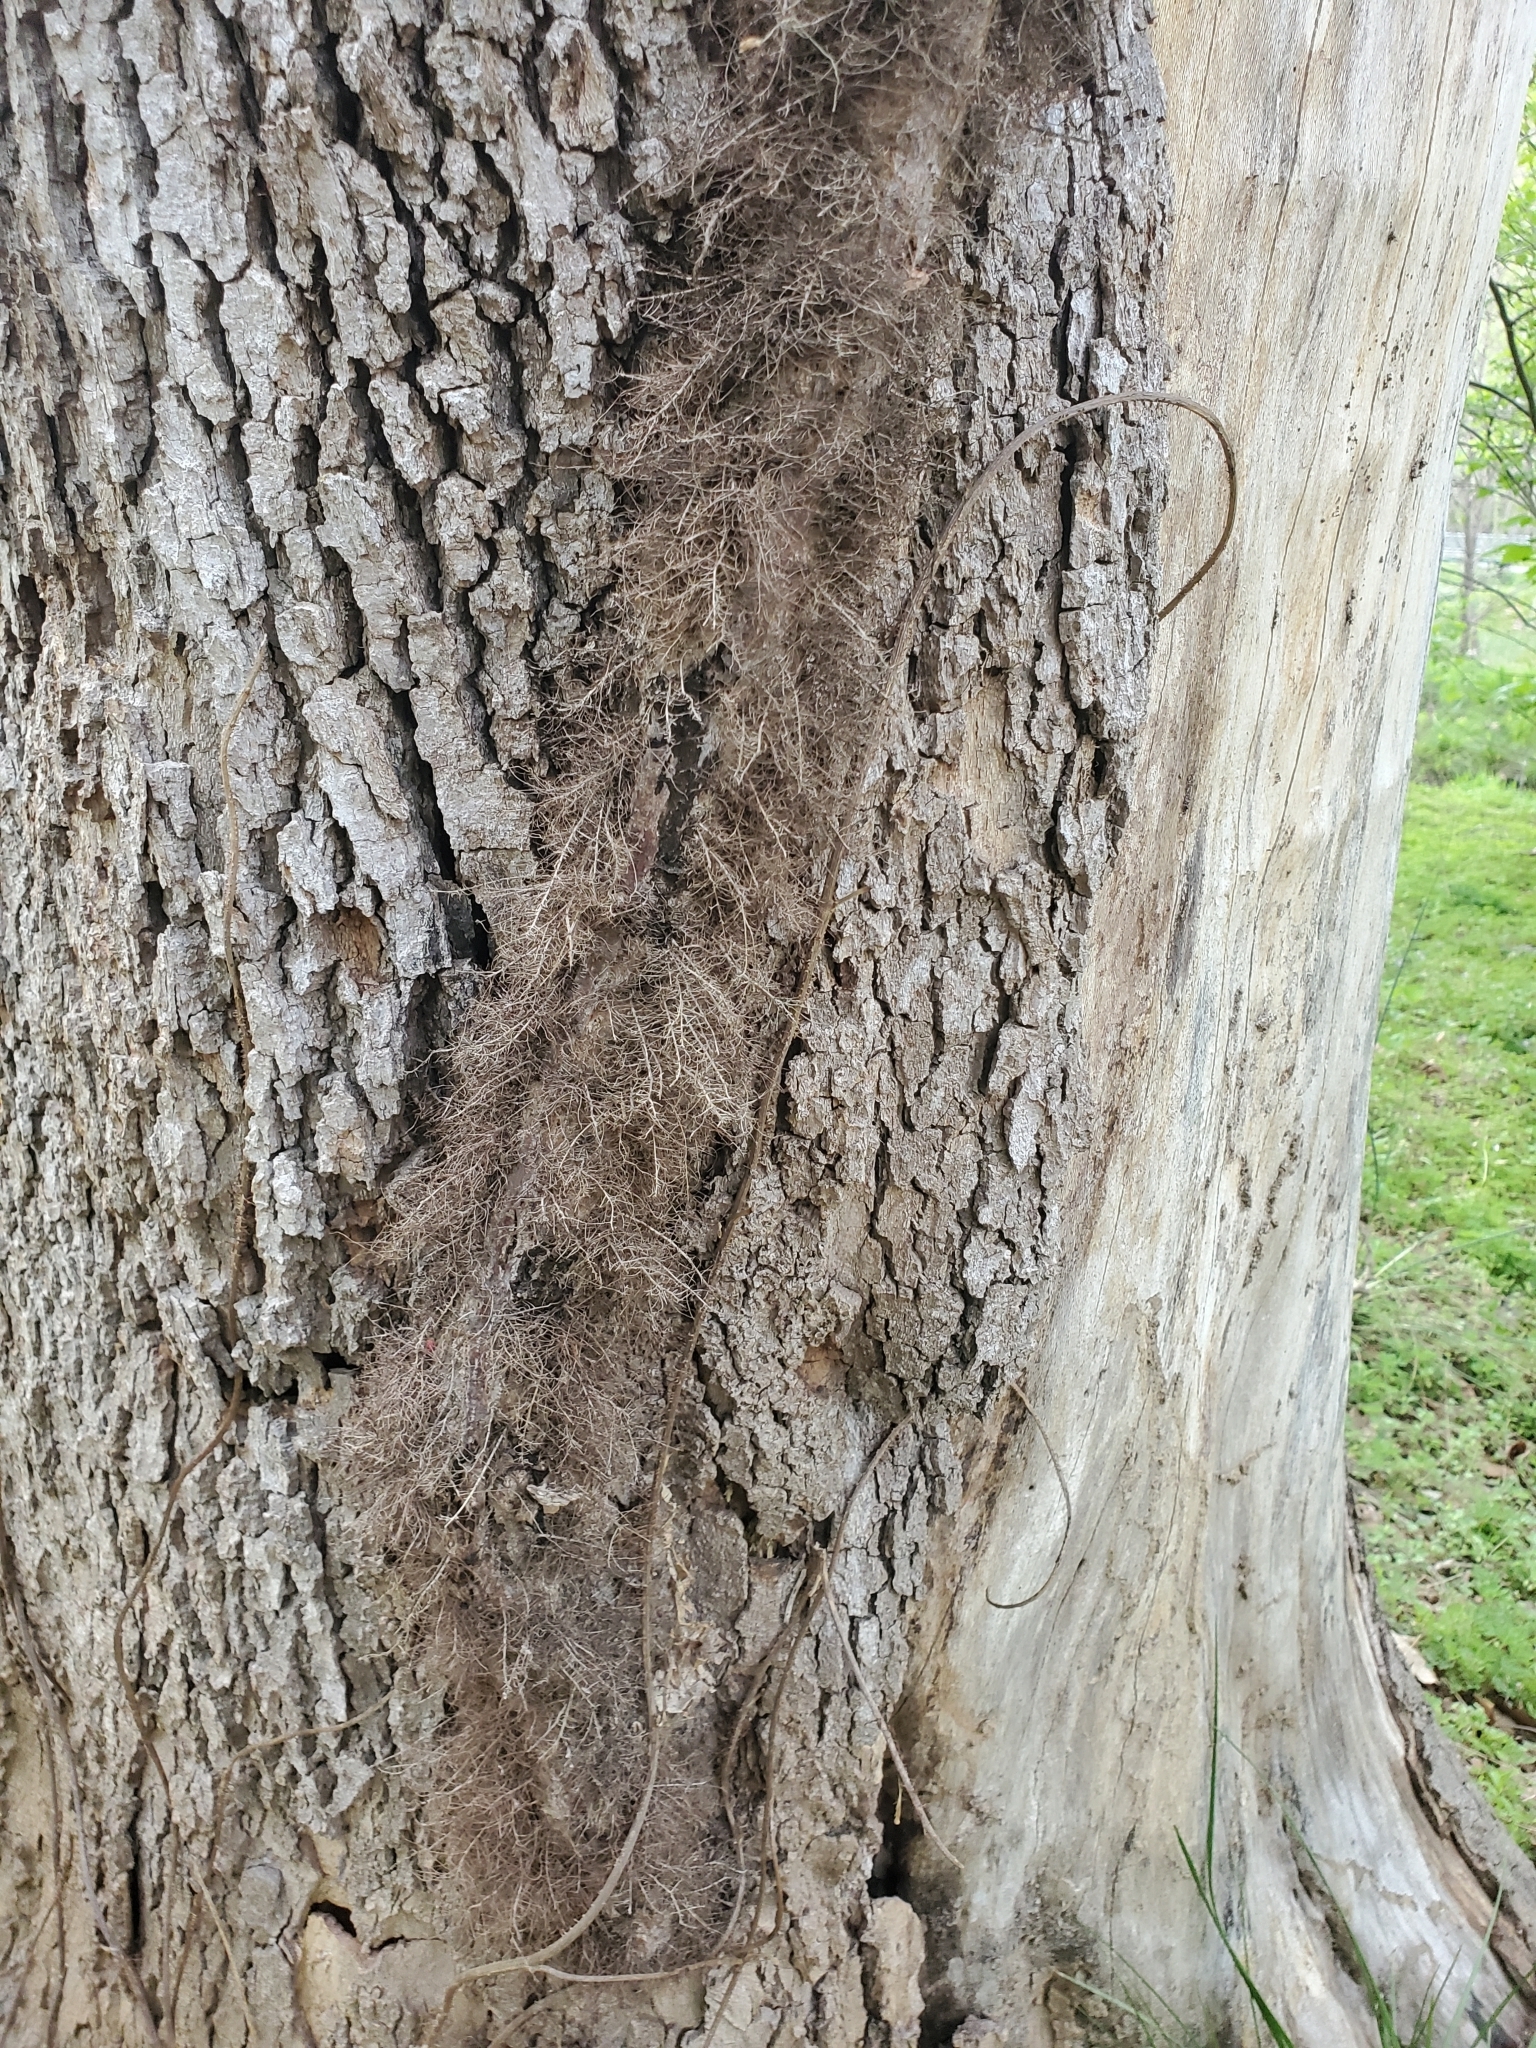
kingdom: Plantae
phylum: Tracheophyta
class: Magnoliopsida
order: Sapindales
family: Anacardiaceae
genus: Toxicodendron
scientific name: Toxicodendron radicans
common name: Poison ivy
